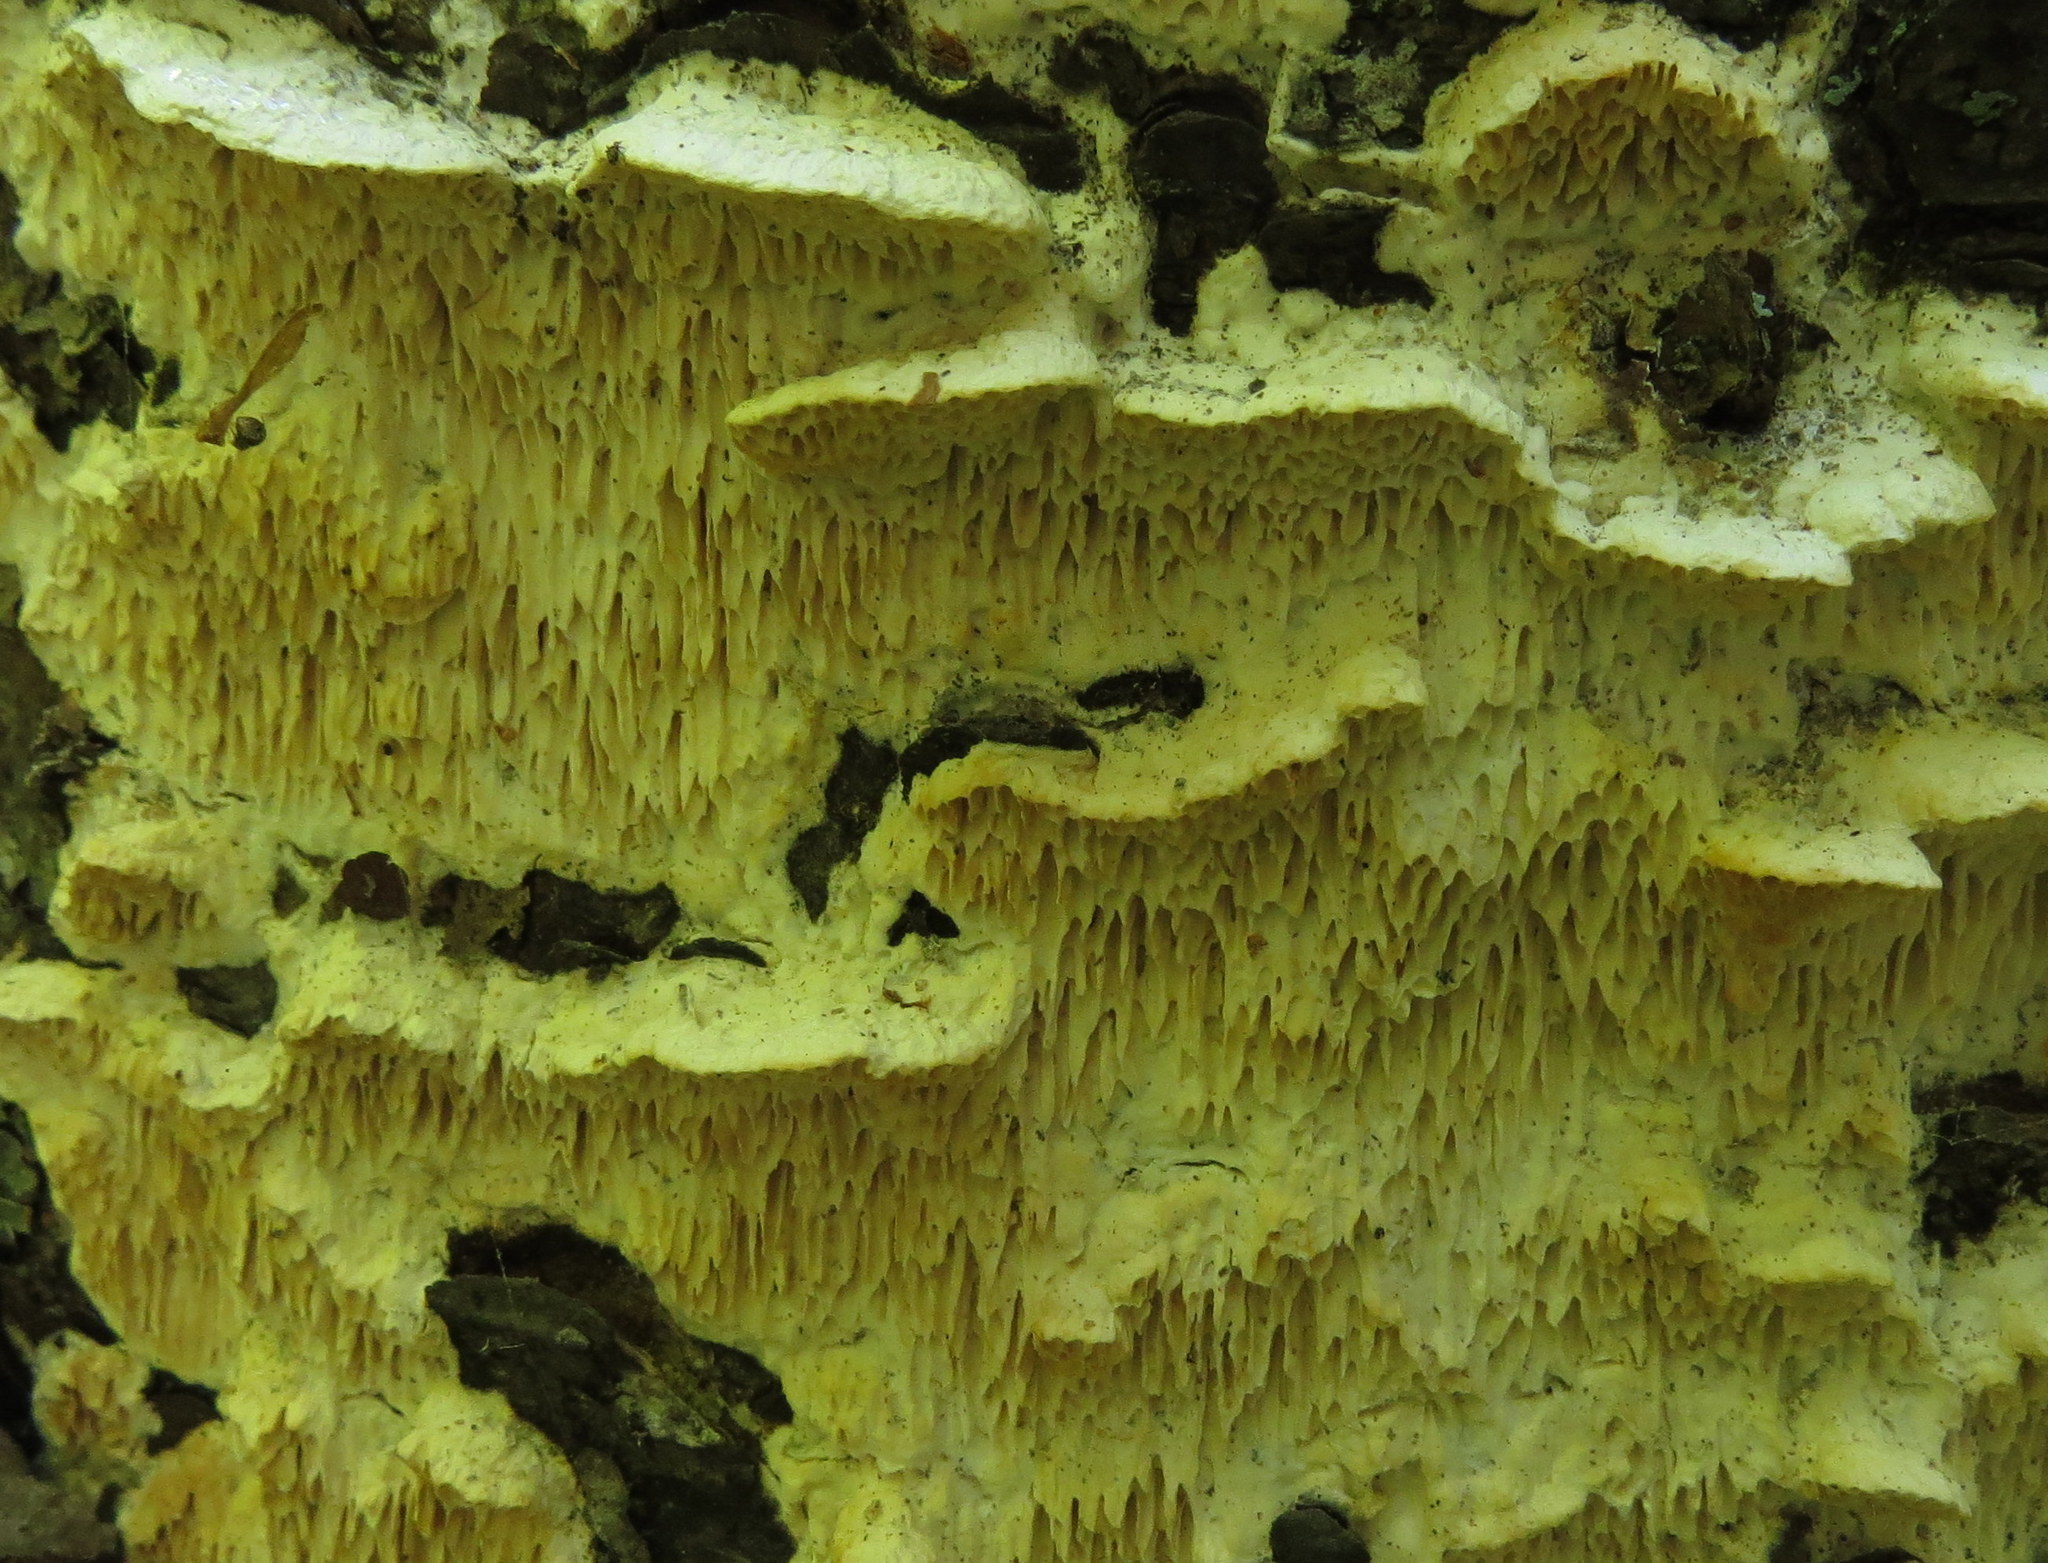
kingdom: Fungi
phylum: Basidiomycota
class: Agaricomycetes
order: Polyporales
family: Irpicaceae
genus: Irpex
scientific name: Irpex lacteus
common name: Milk-white toothed polypore
